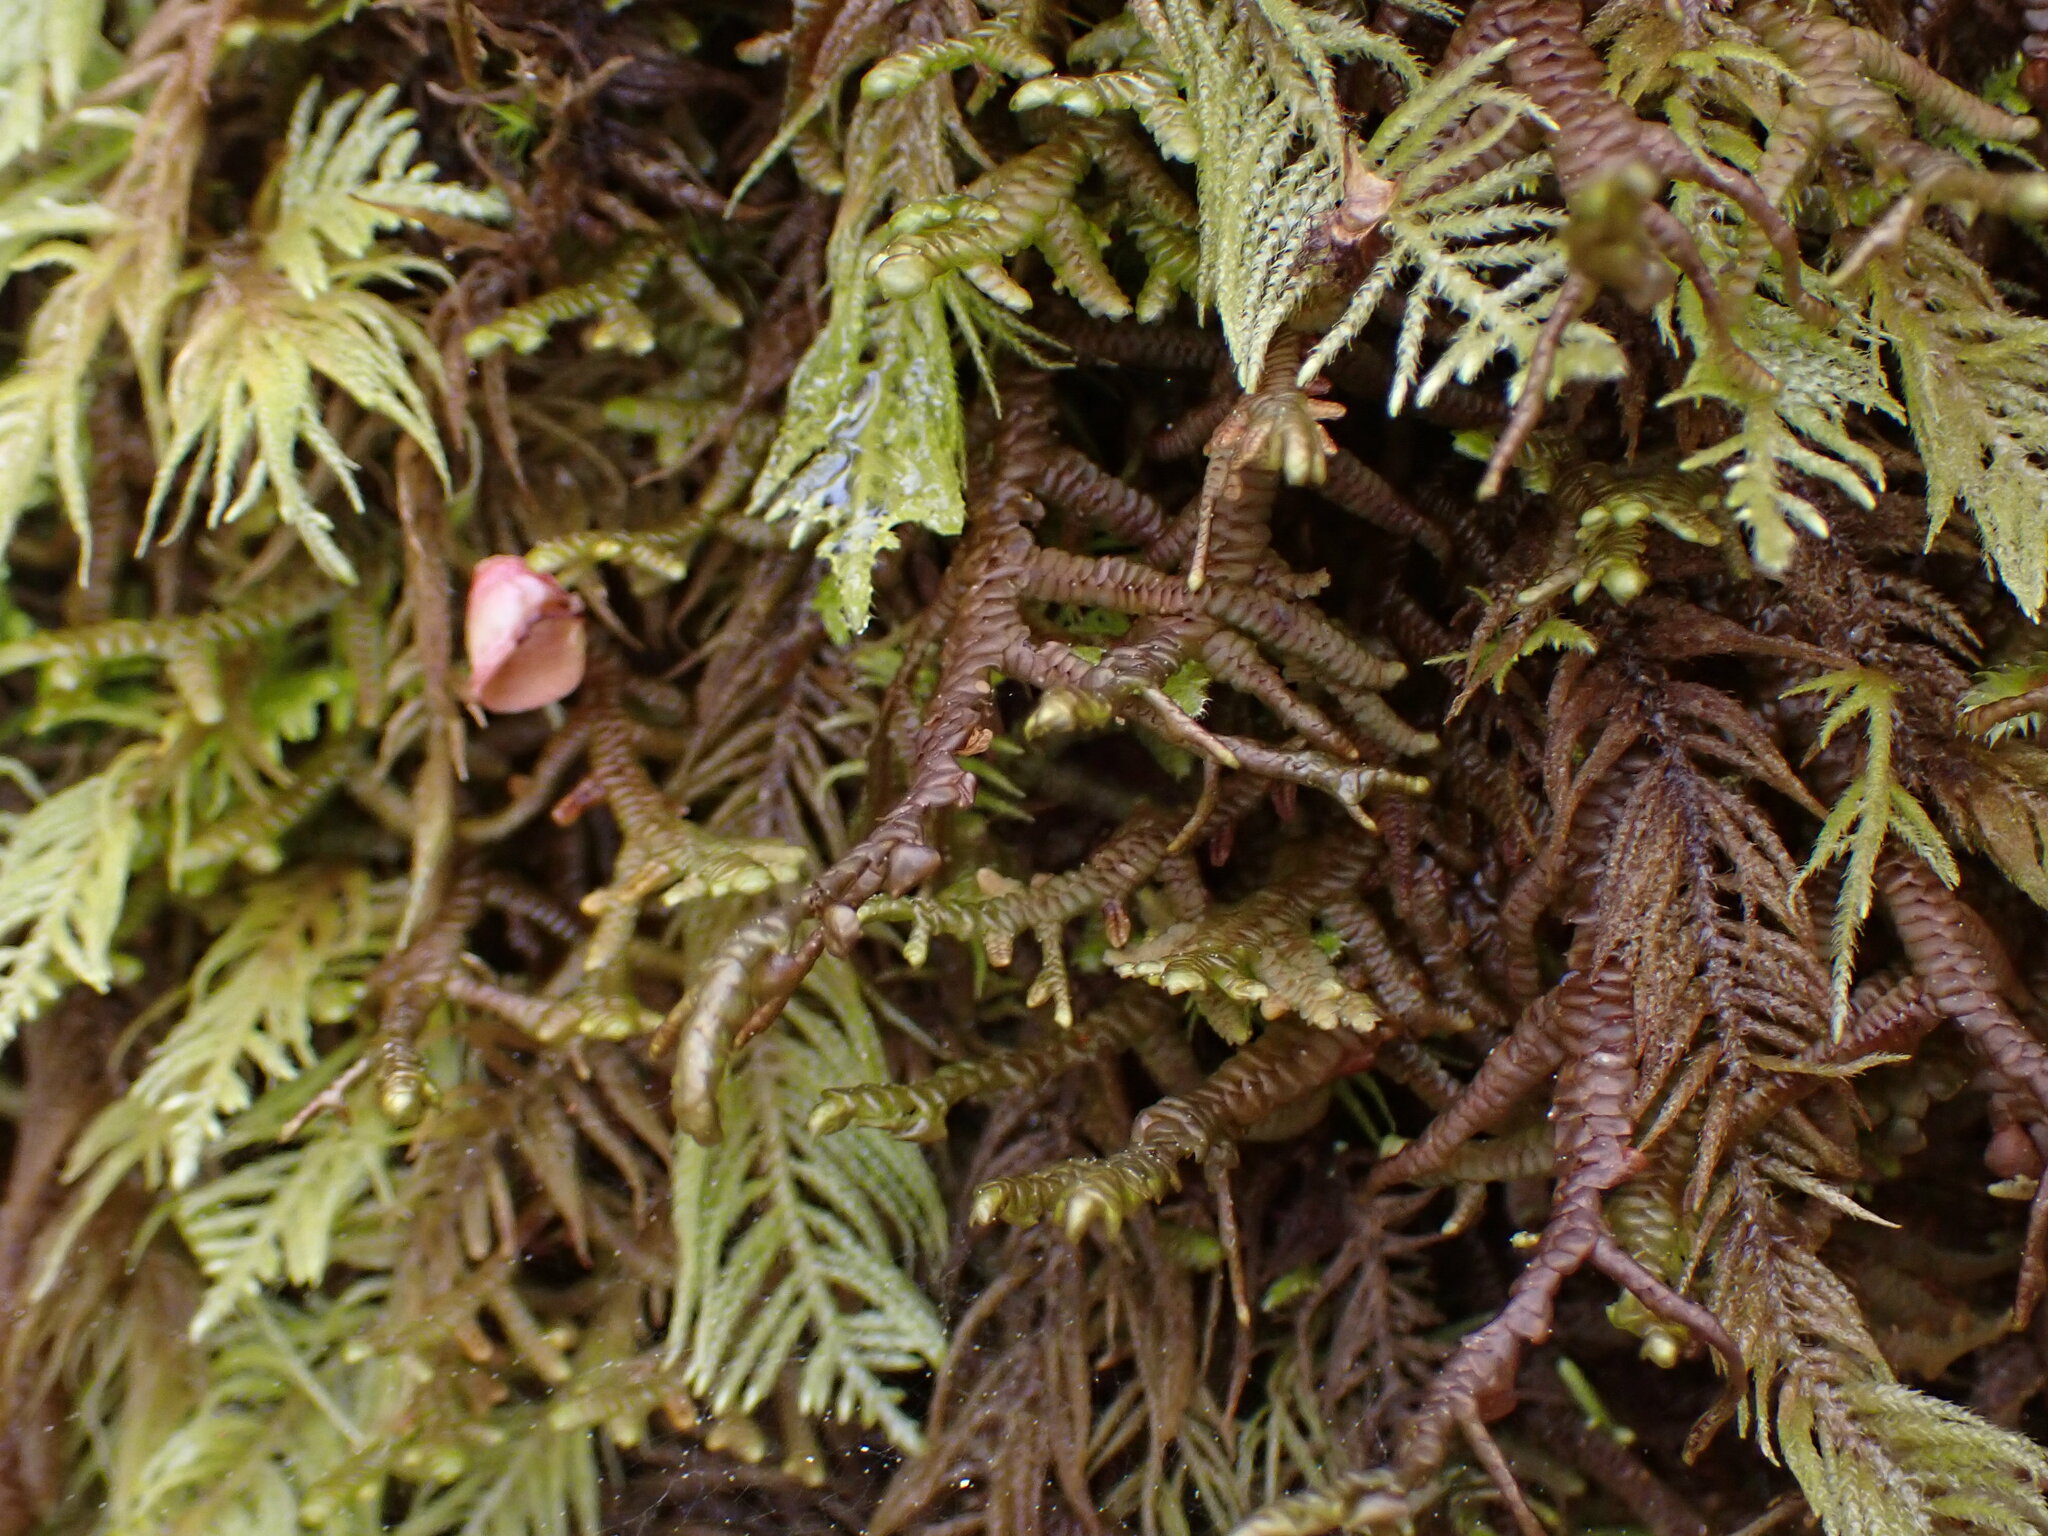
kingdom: Plantae
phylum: Marchantiophyta
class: Jungermanniopsida
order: Porellales
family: Porellaceae
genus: Porella
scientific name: Porella navicularis
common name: Tree ruffle liverwort
